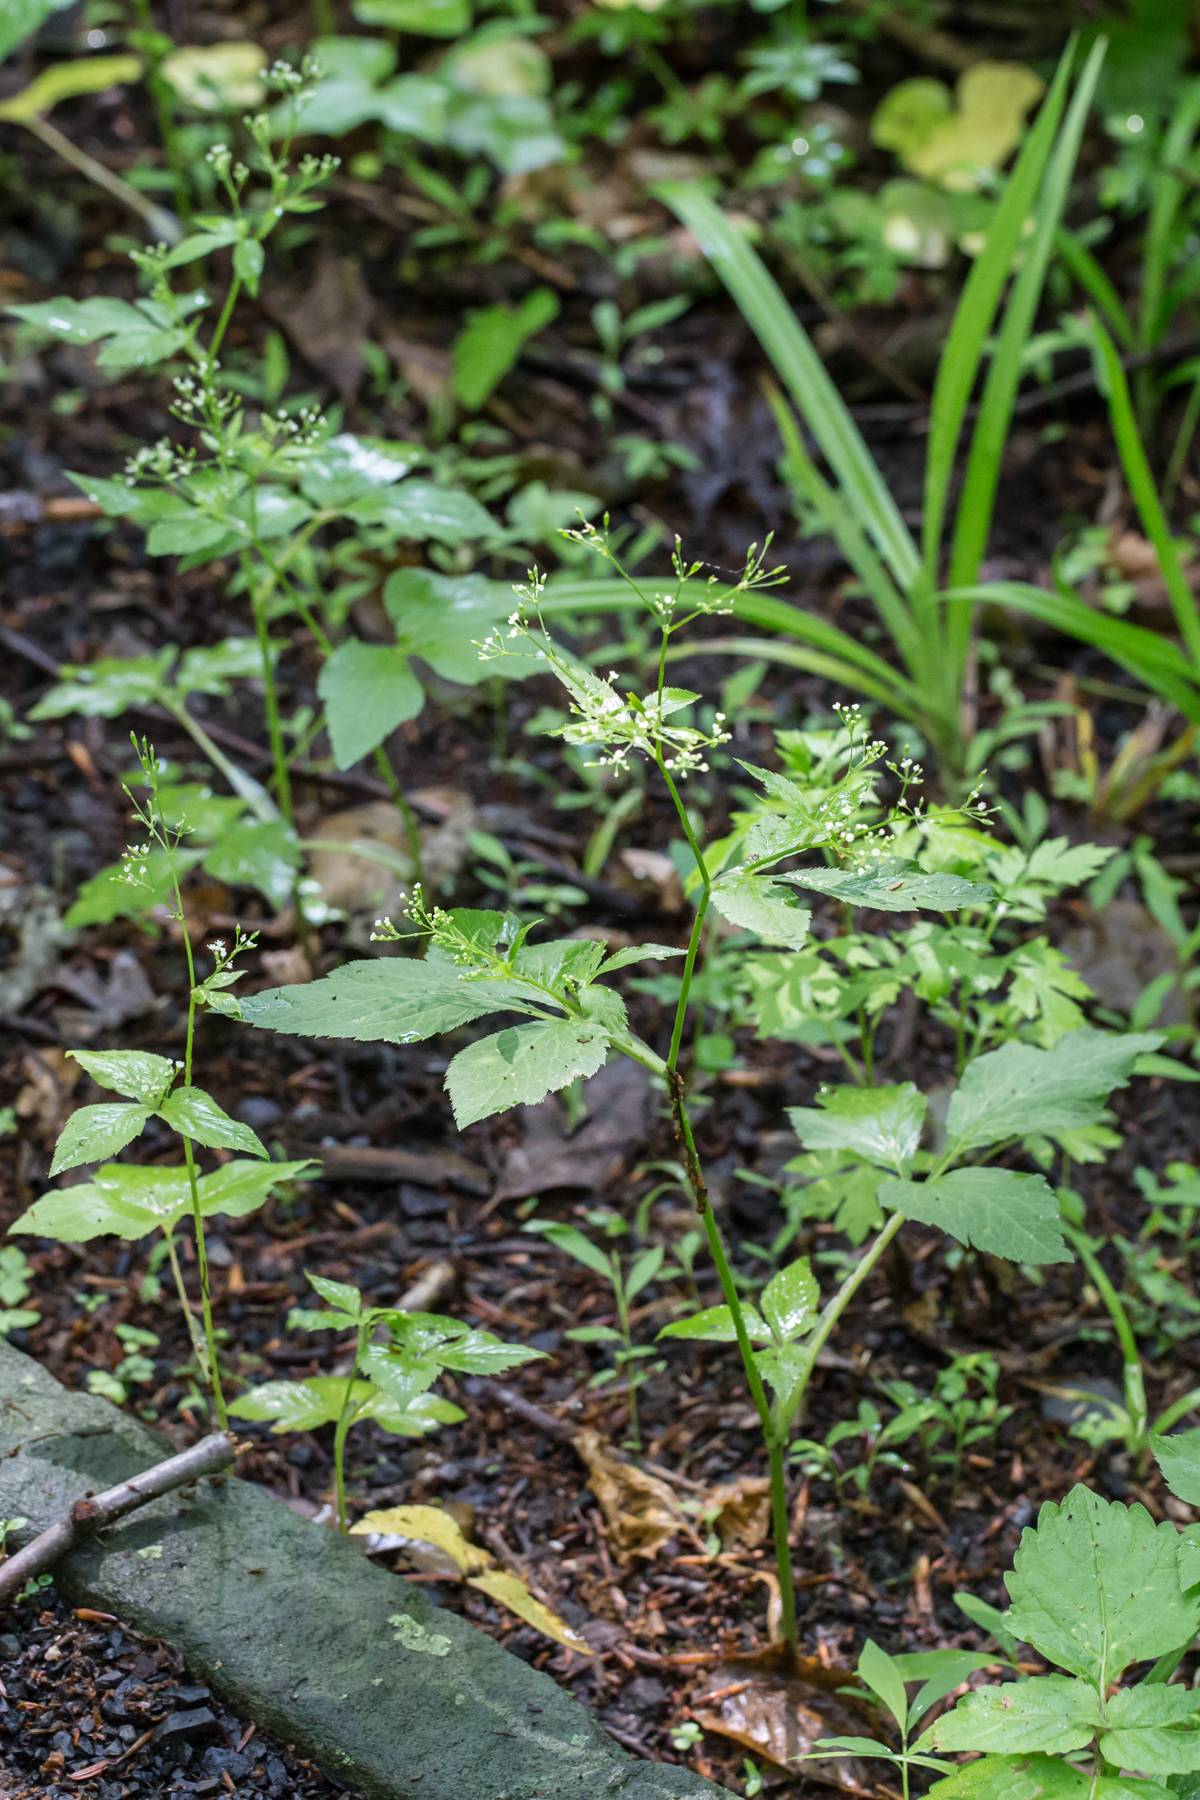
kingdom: Plantae
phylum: Tracheophyta
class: Magnoliopsida
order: Apiales
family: Apiaceae
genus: Cryptotaenia
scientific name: Cryptotaenia canadensis
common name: Honewort
